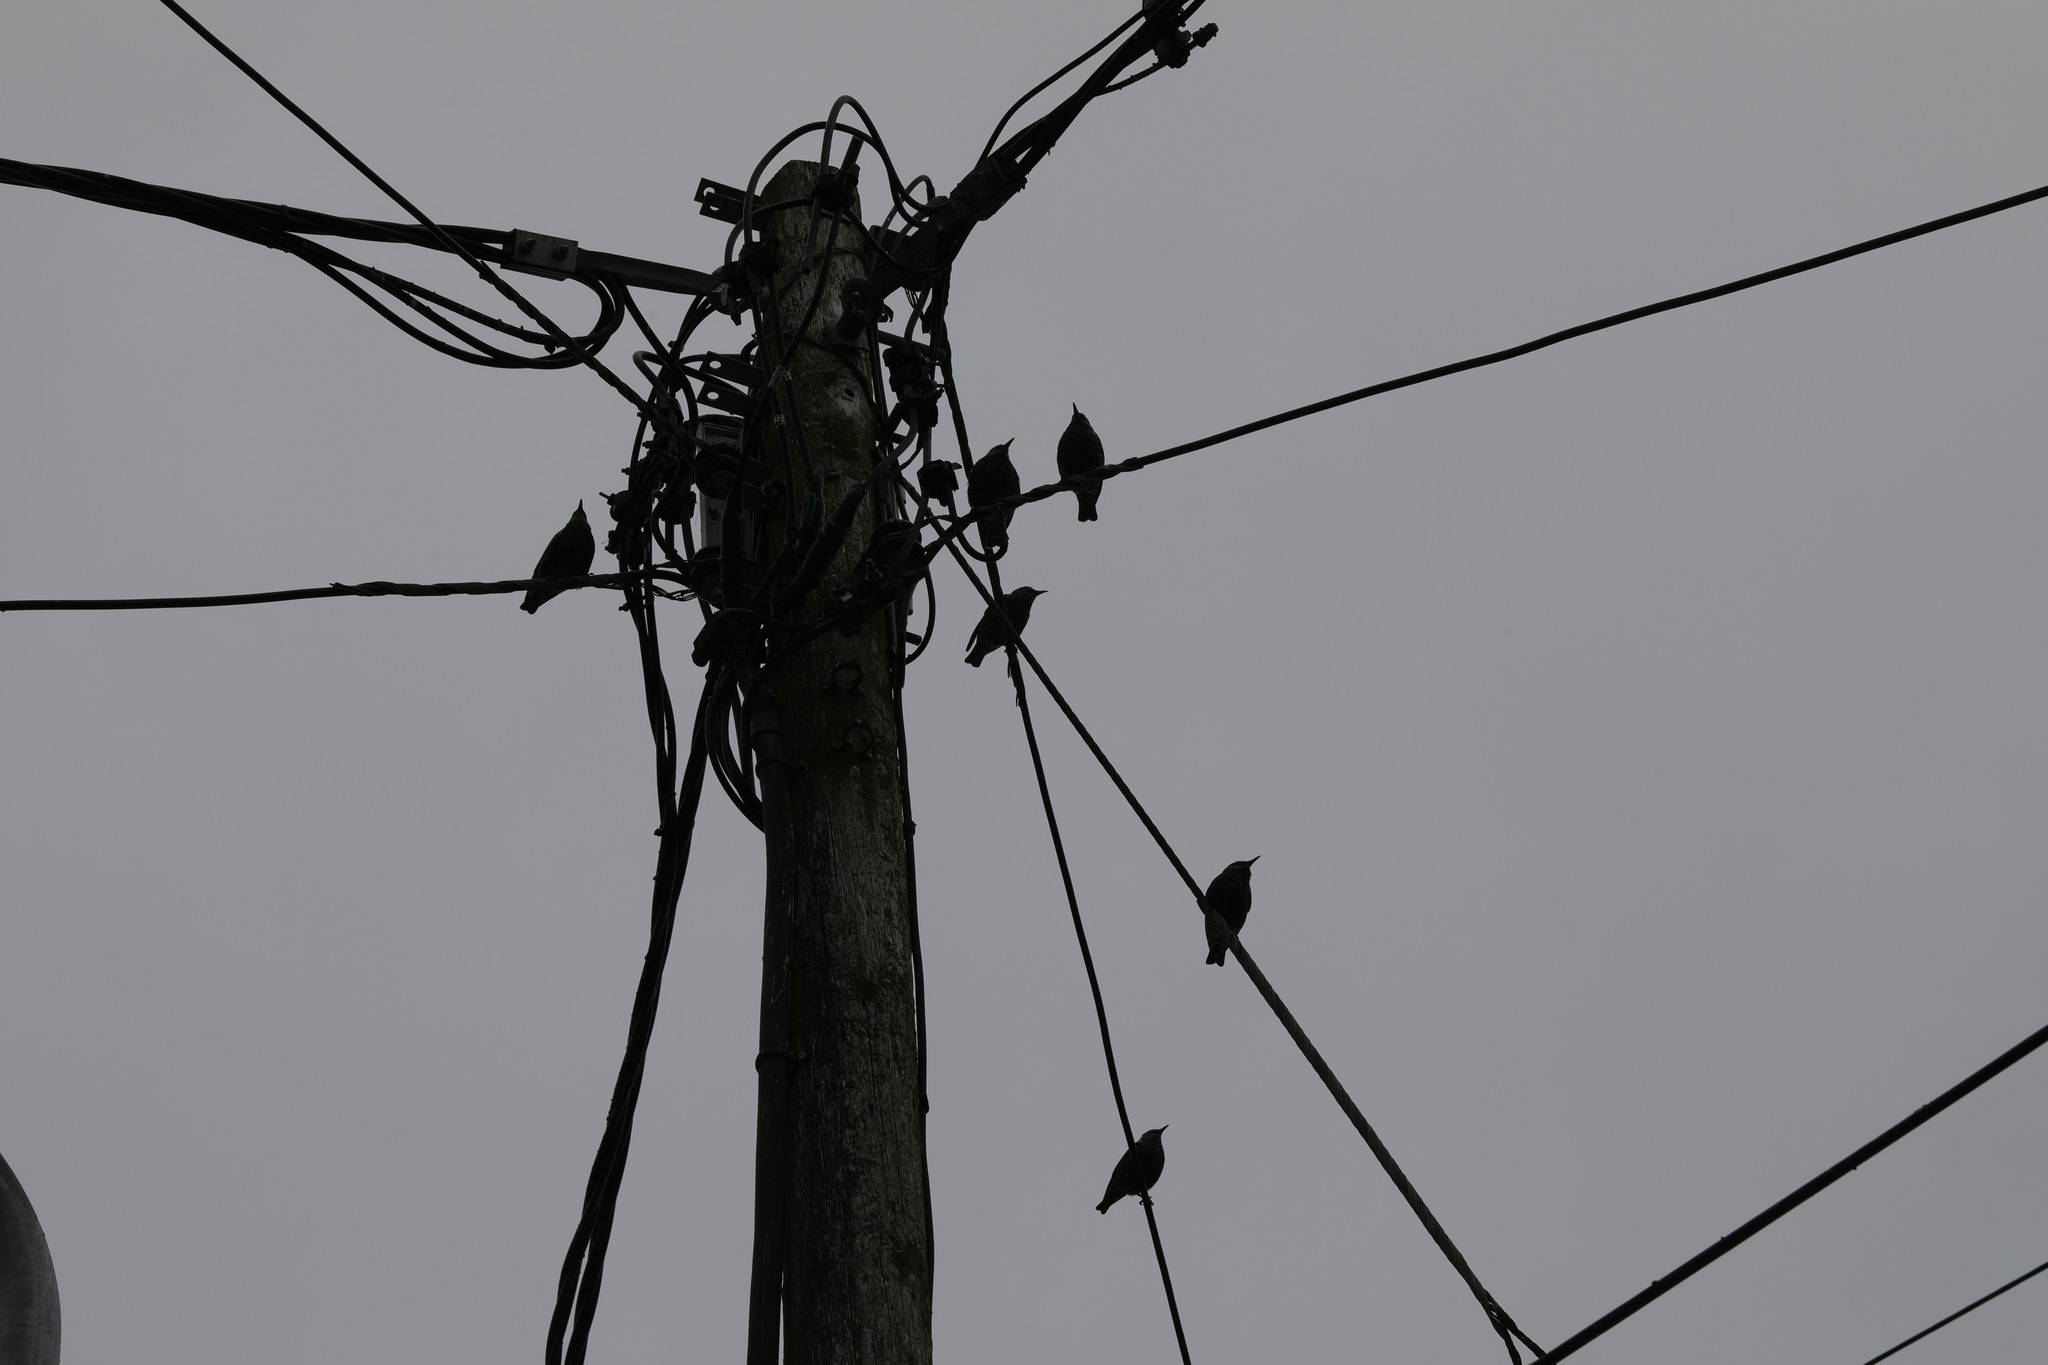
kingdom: Animalia
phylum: Chordata
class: Aves
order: Passeriformes
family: Sturnidae
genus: Sturnus
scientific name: Sturnus vulgaris
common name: Common starling
